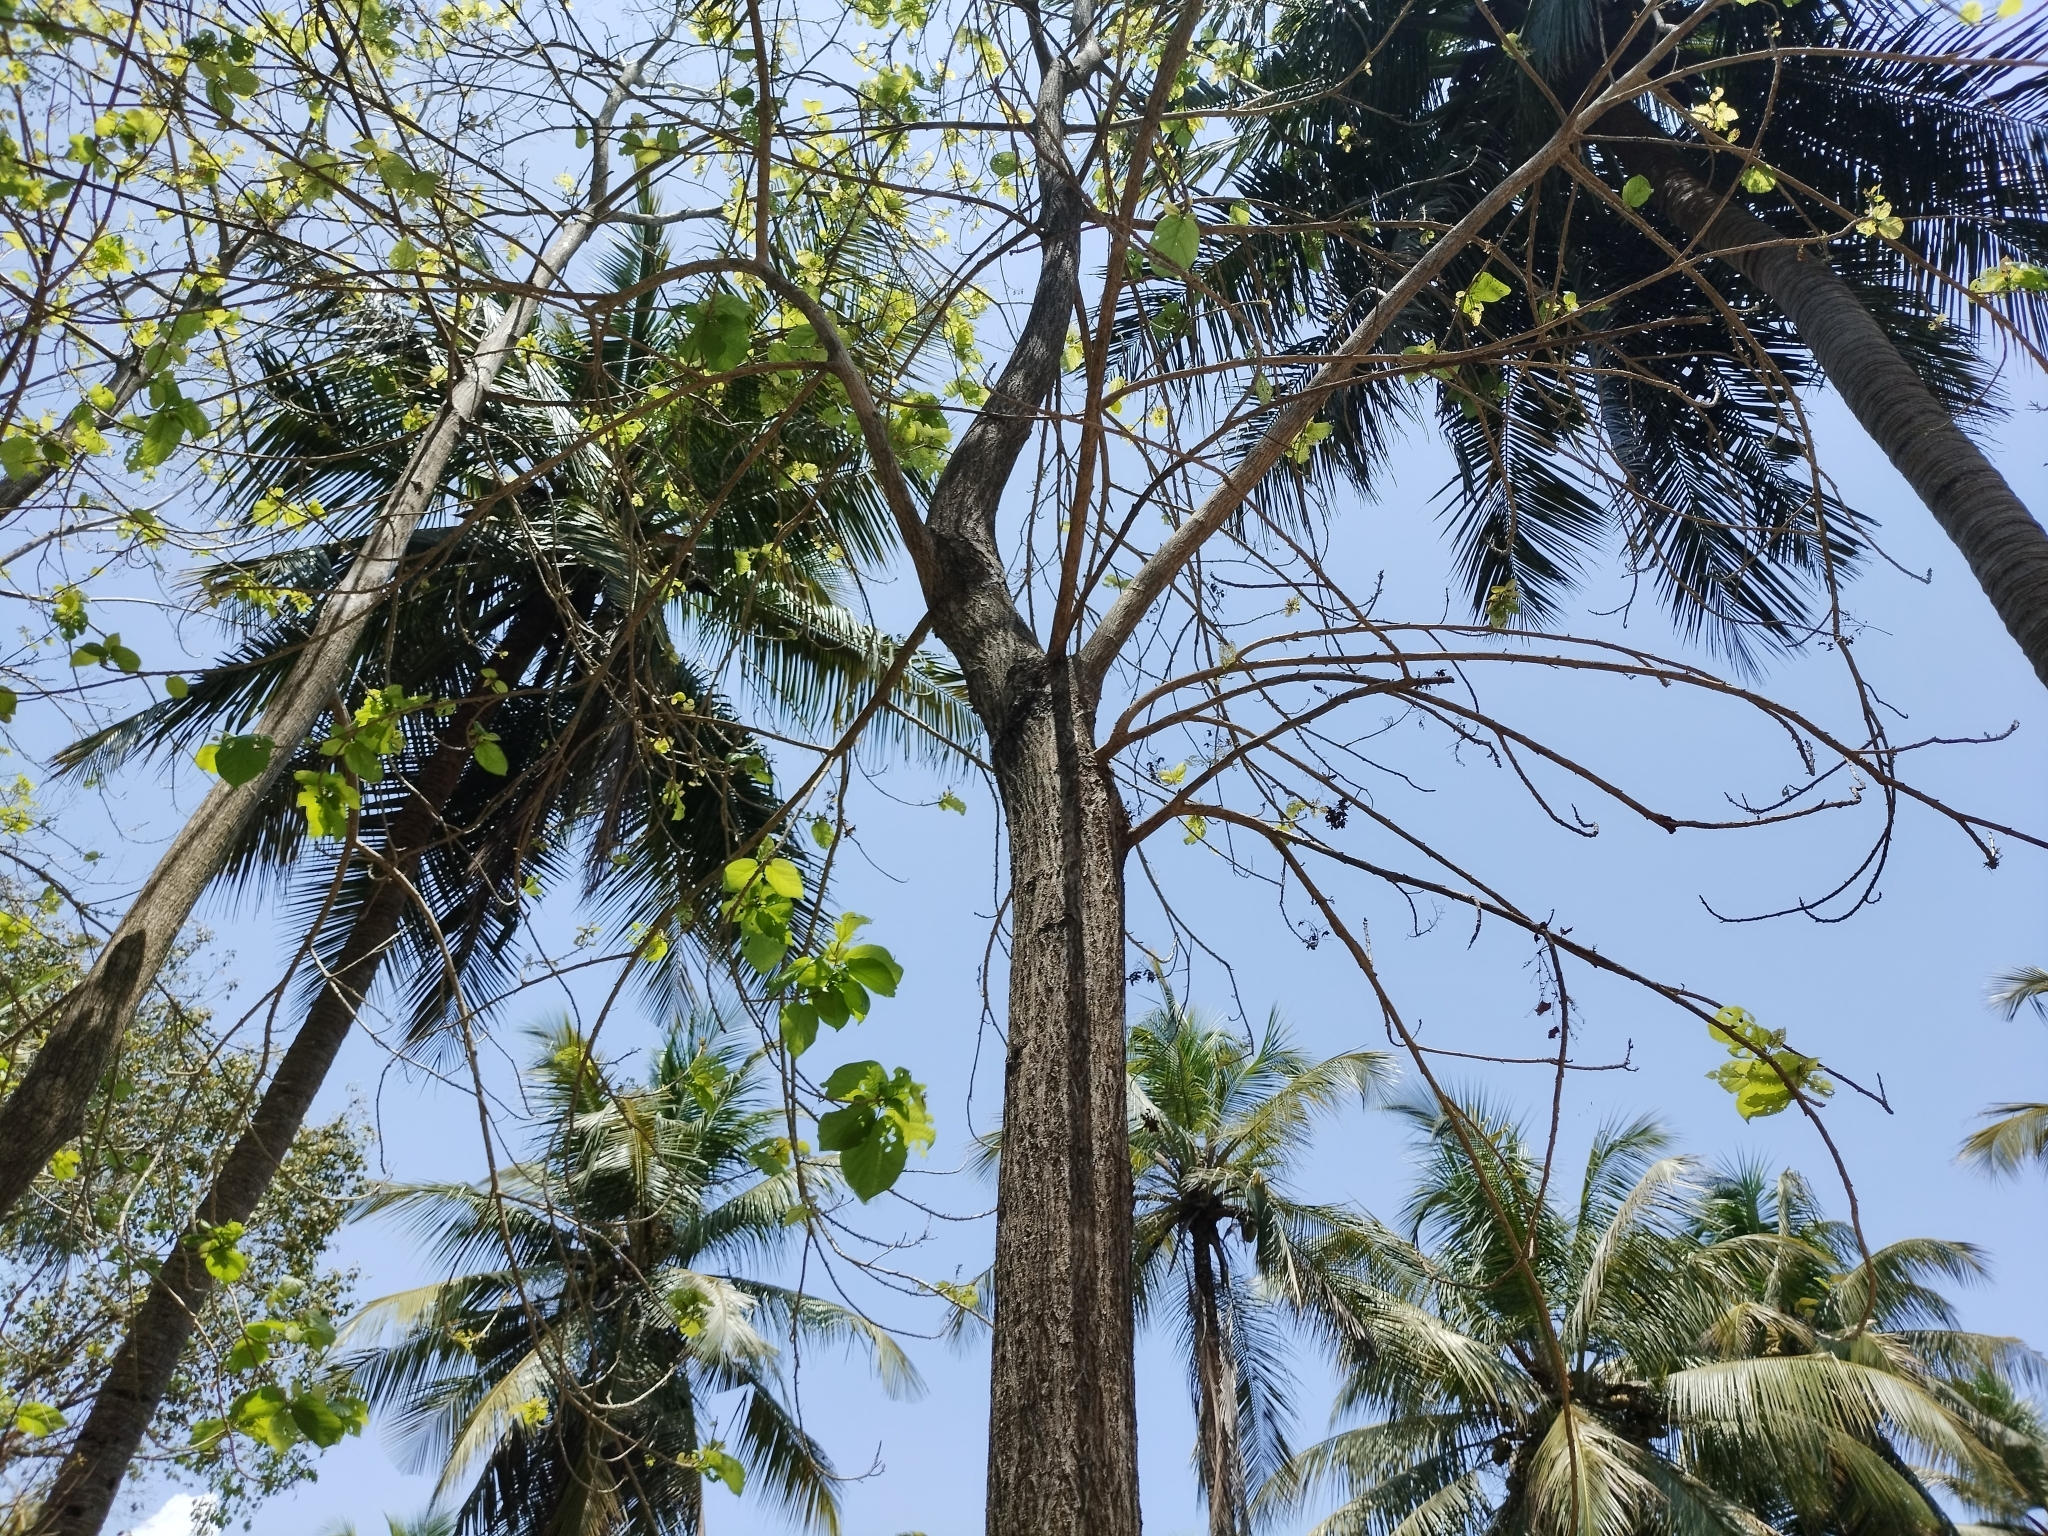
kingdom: Plantae
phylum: Tracheophyta
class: Magnoliopsida
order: Malvales
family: Malvaceae
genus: Berrya
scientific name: Berrya cordifolia
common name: Trincomalee
